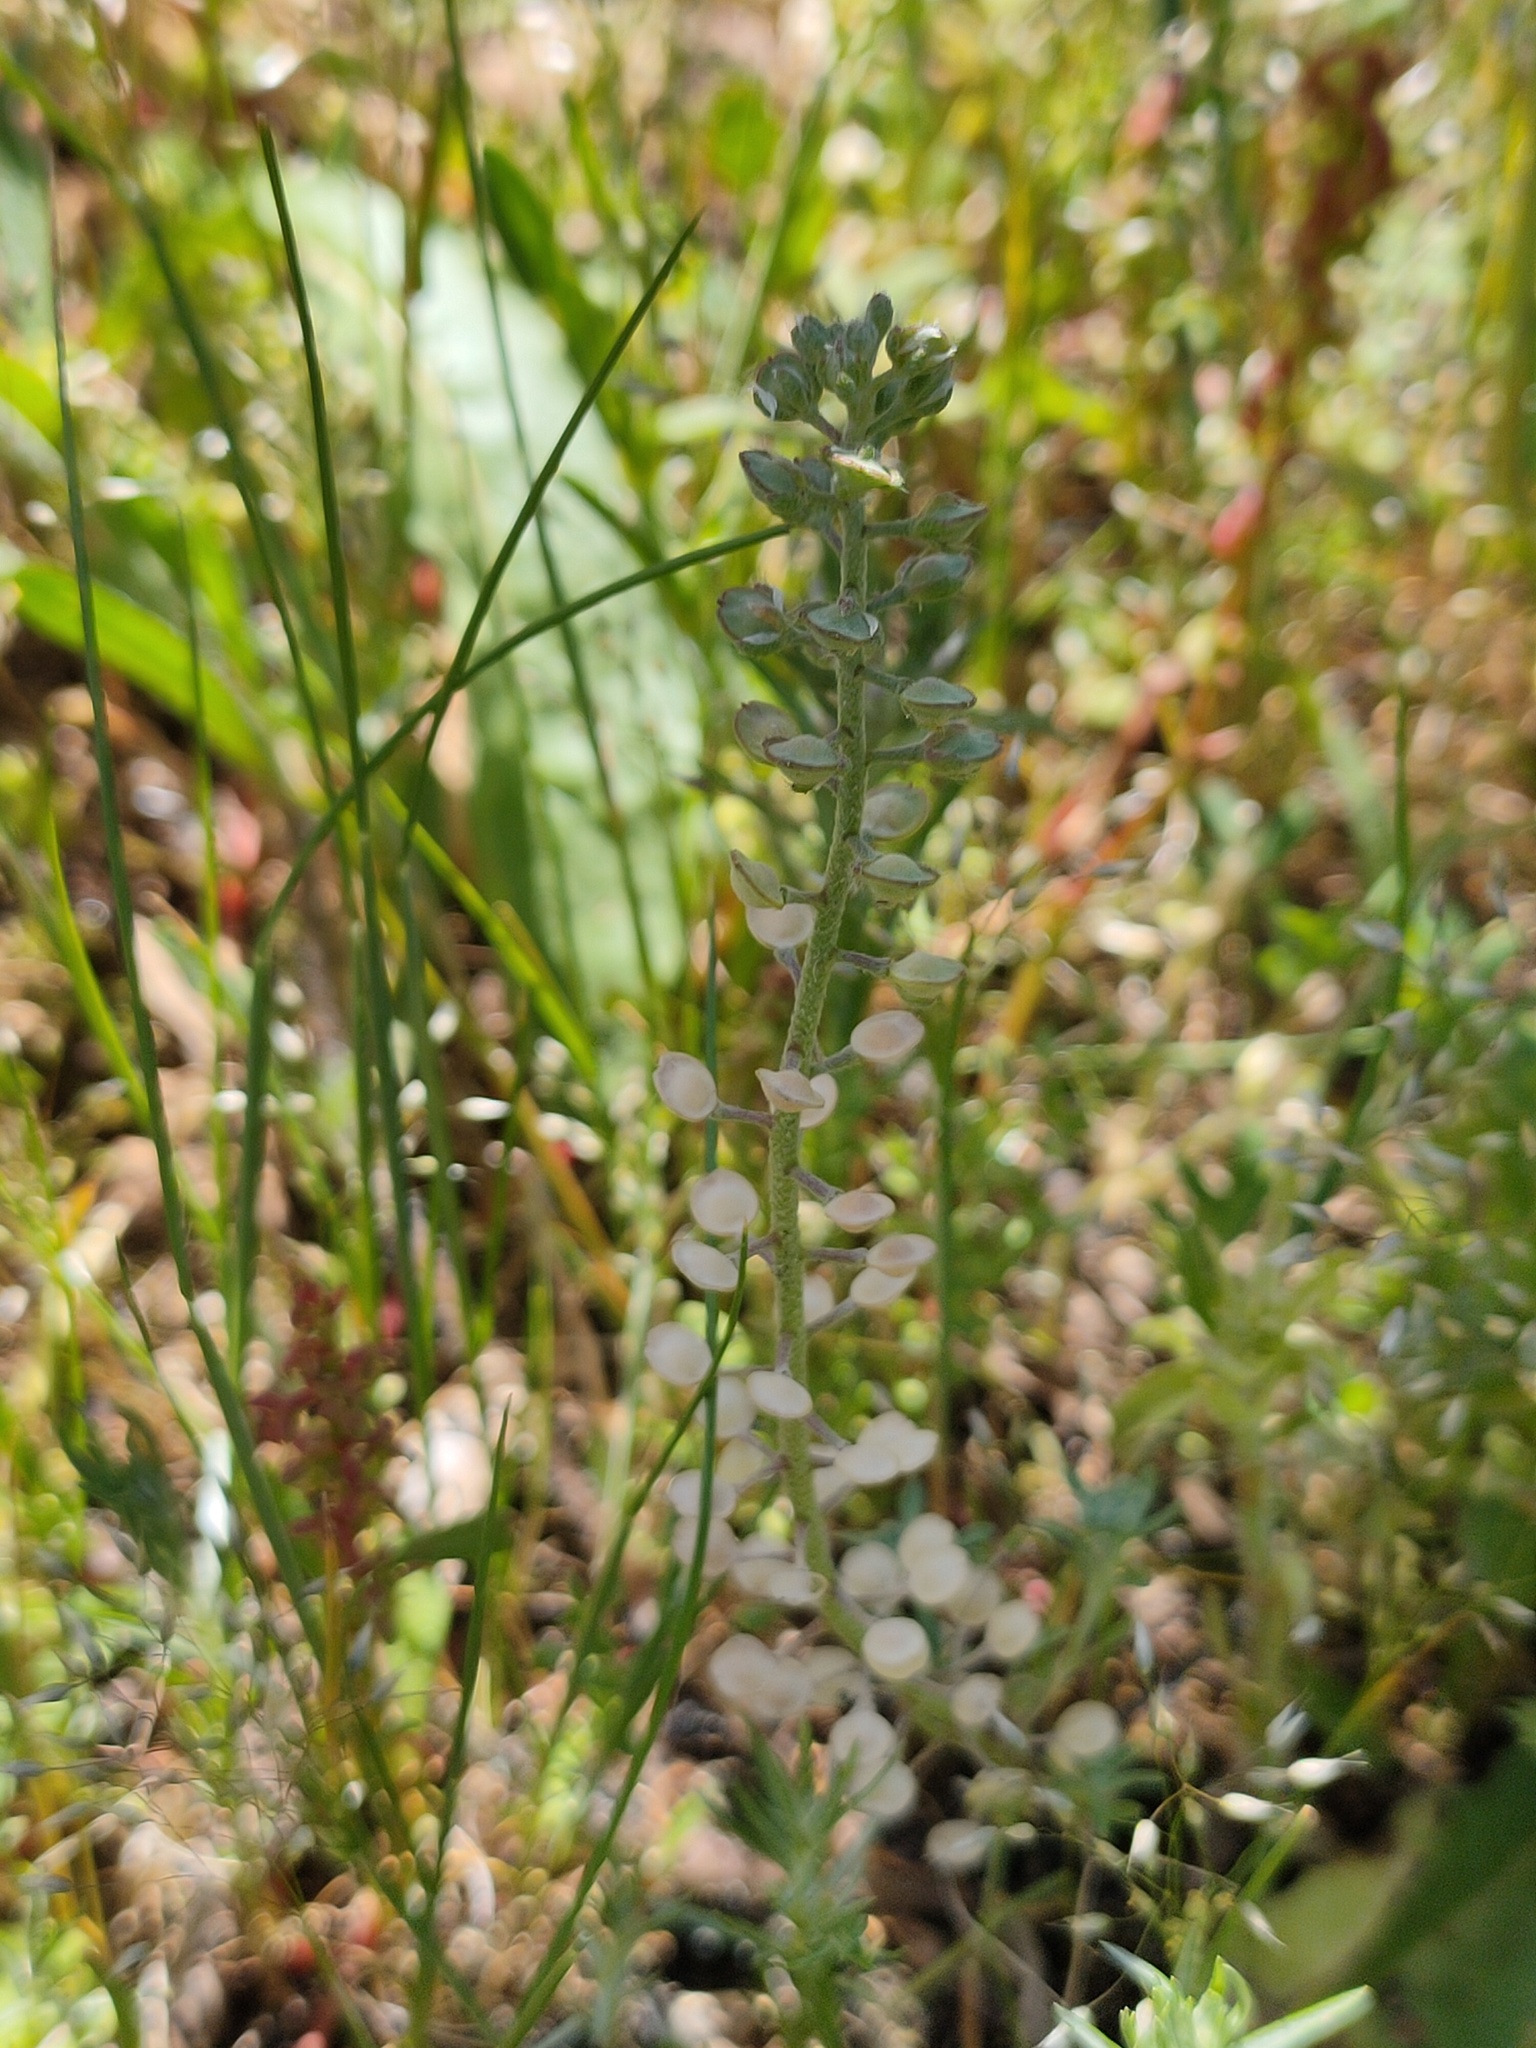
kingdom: Plantae
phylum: Tracheophyta
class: Magnoliopsida
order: Brassicales
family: Brassicaceae
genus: Alyssum
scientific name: Alyssum alyssoides
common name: Small alison
